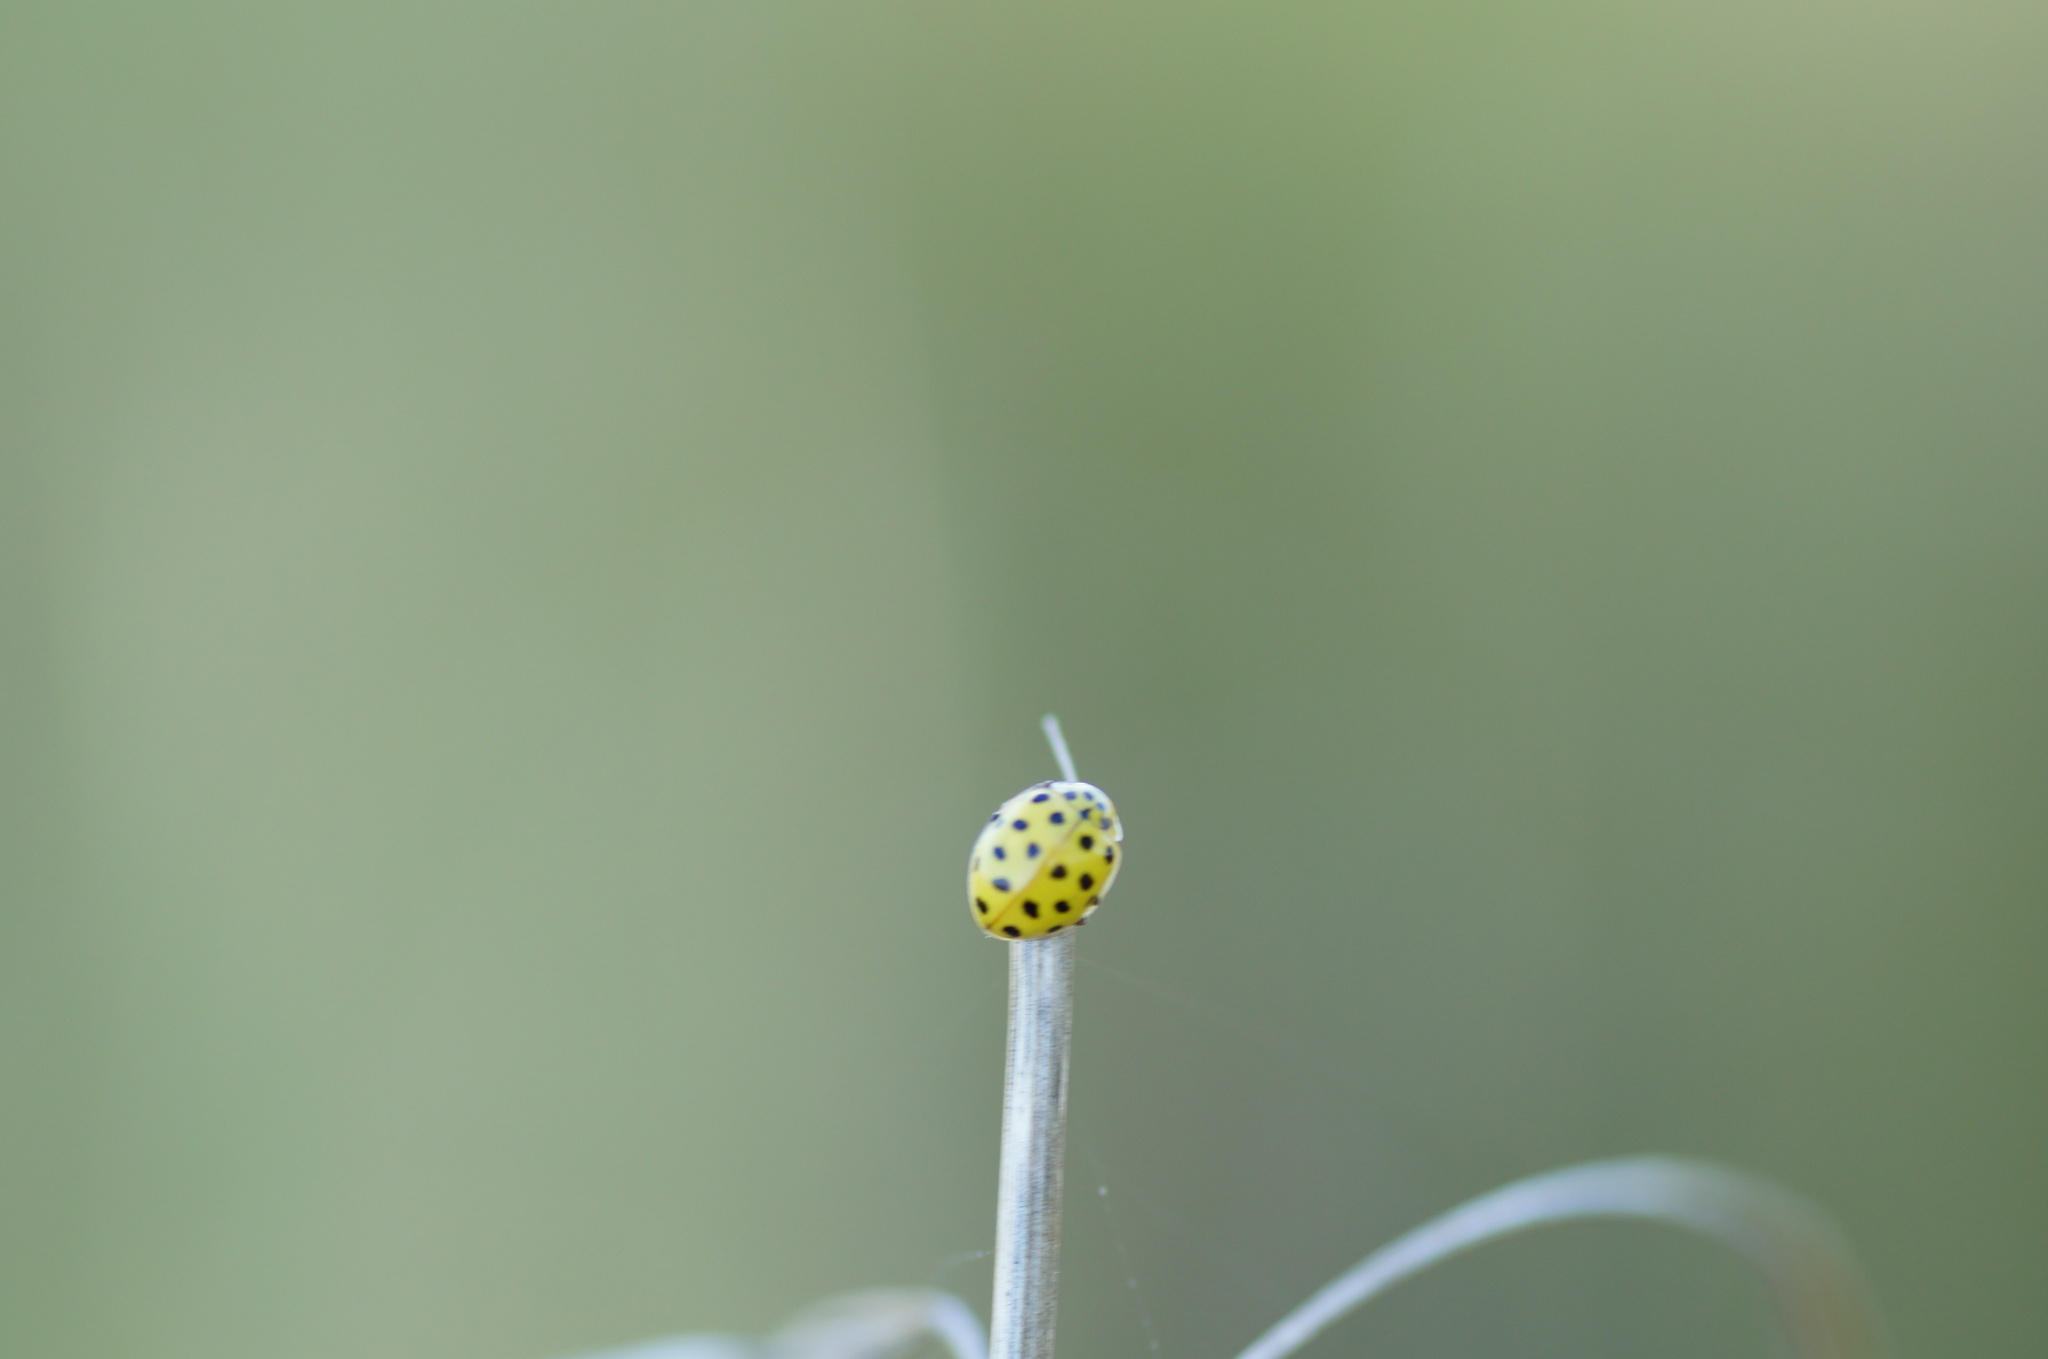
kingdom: Animalia
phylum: Arthropoda
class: Insecta
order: Coleoptera
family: Coccinellidae
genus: Psyllobora
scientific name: Psyllobora vigintiduopunctata
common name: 22-spot ladybird
